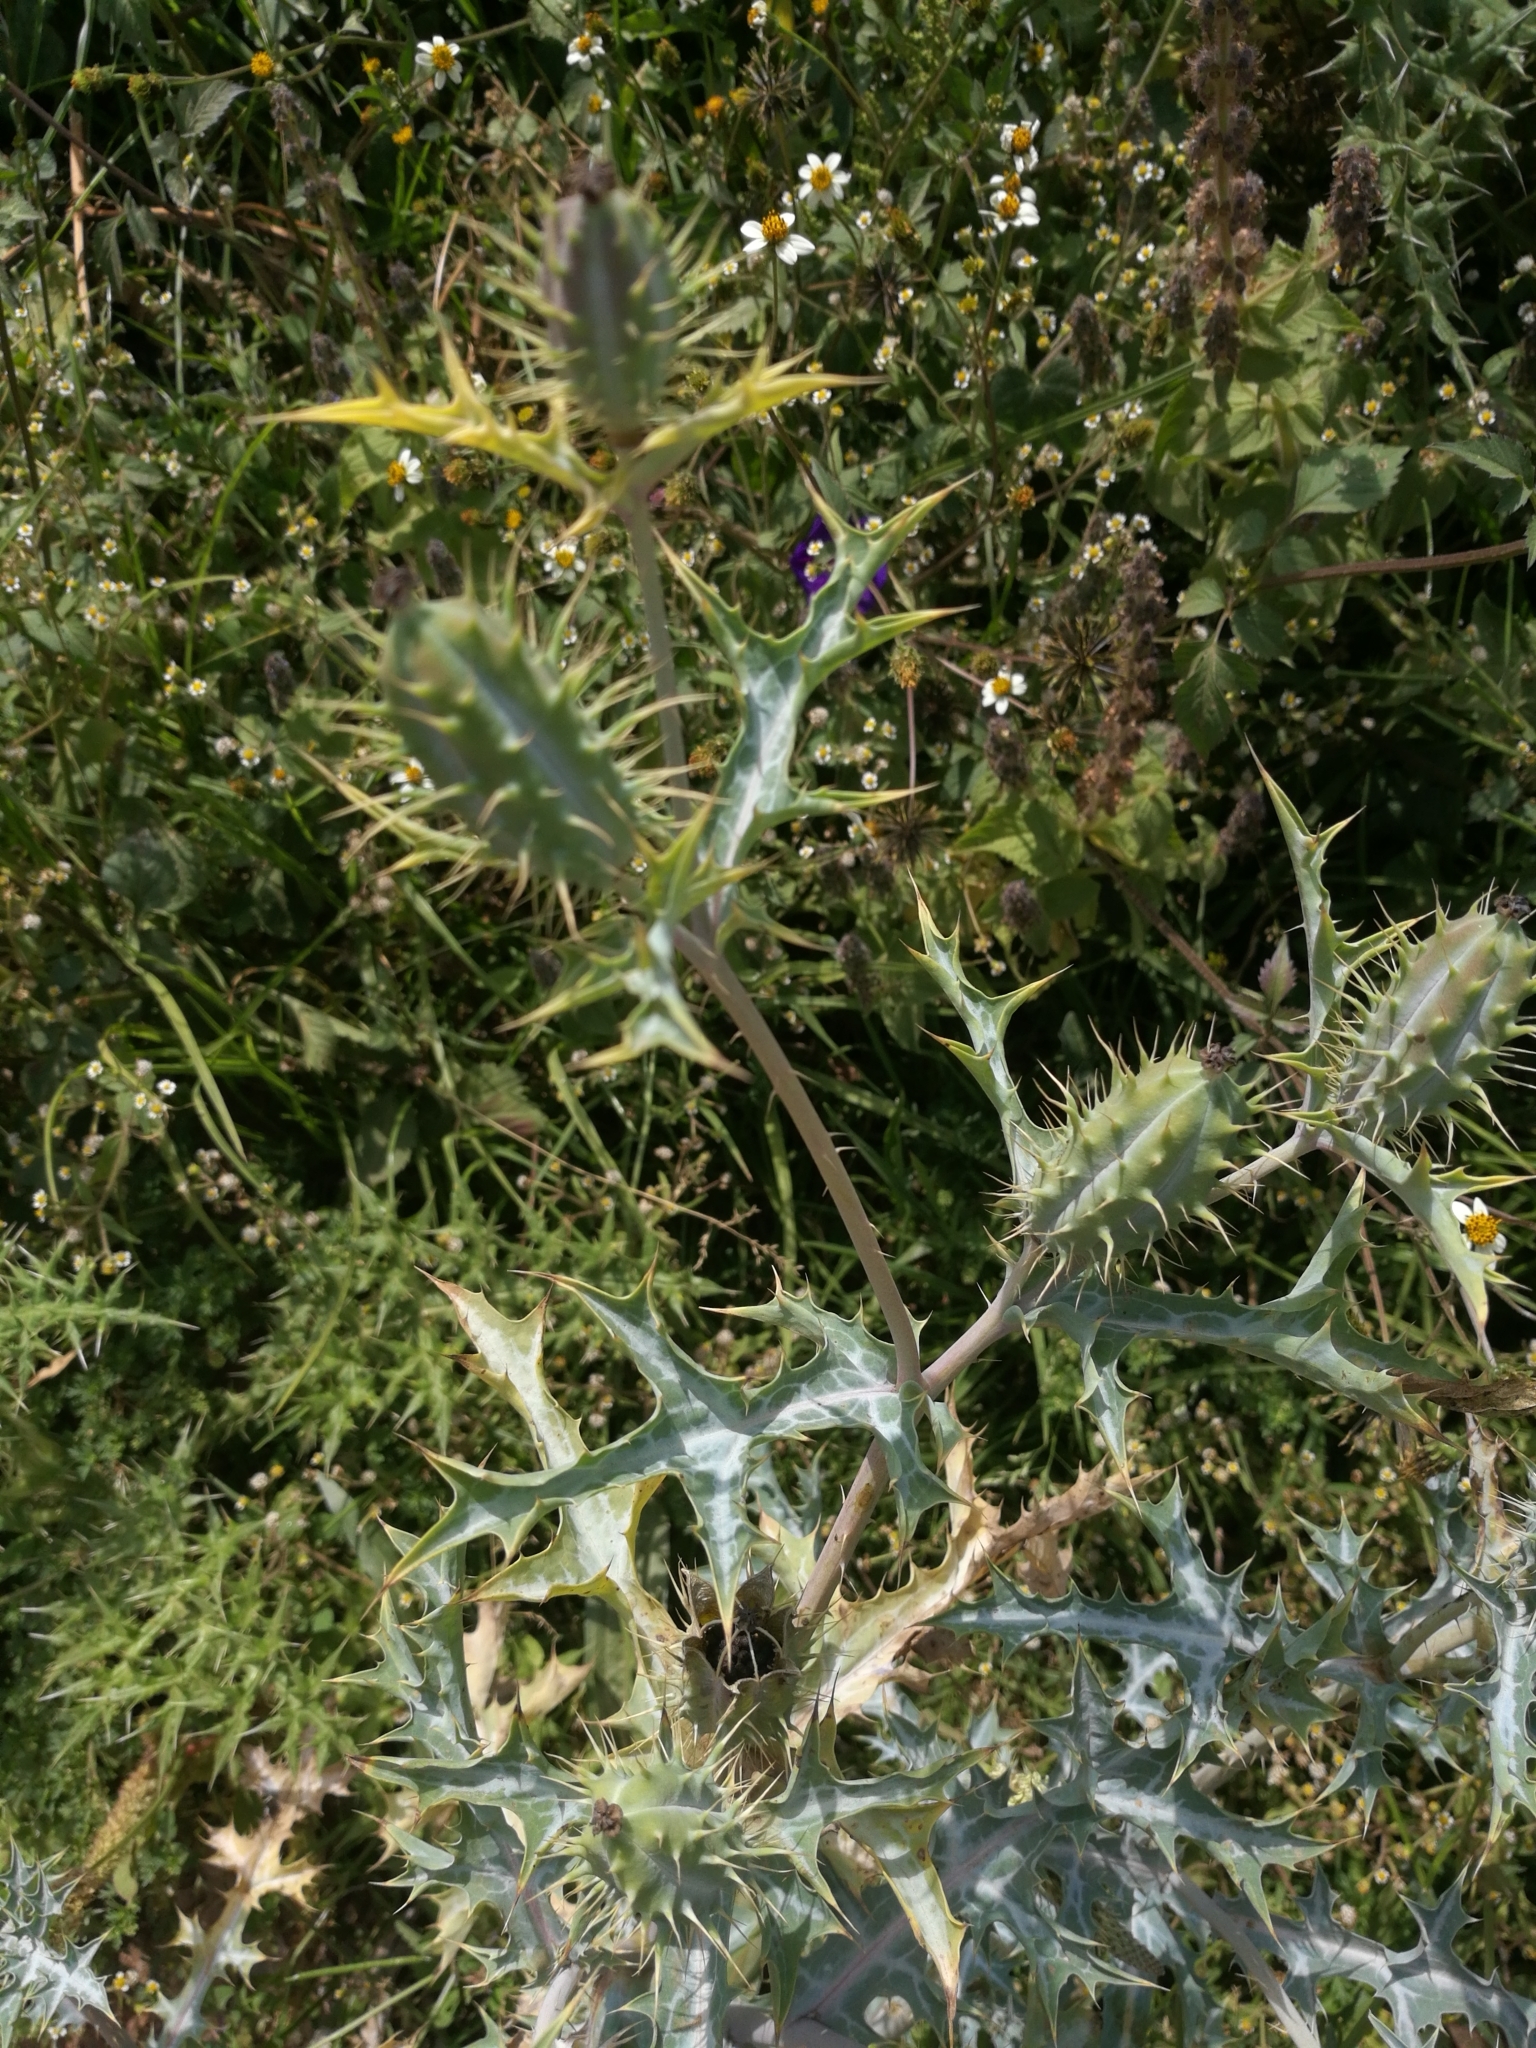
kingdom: Plantae
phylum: Tracheophyta
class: Magnoliopsida
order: Ranunculales
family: Papaveraceae
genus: Argemone
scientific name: Argemone ochroleuca
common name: White-flower mexican-poppy
